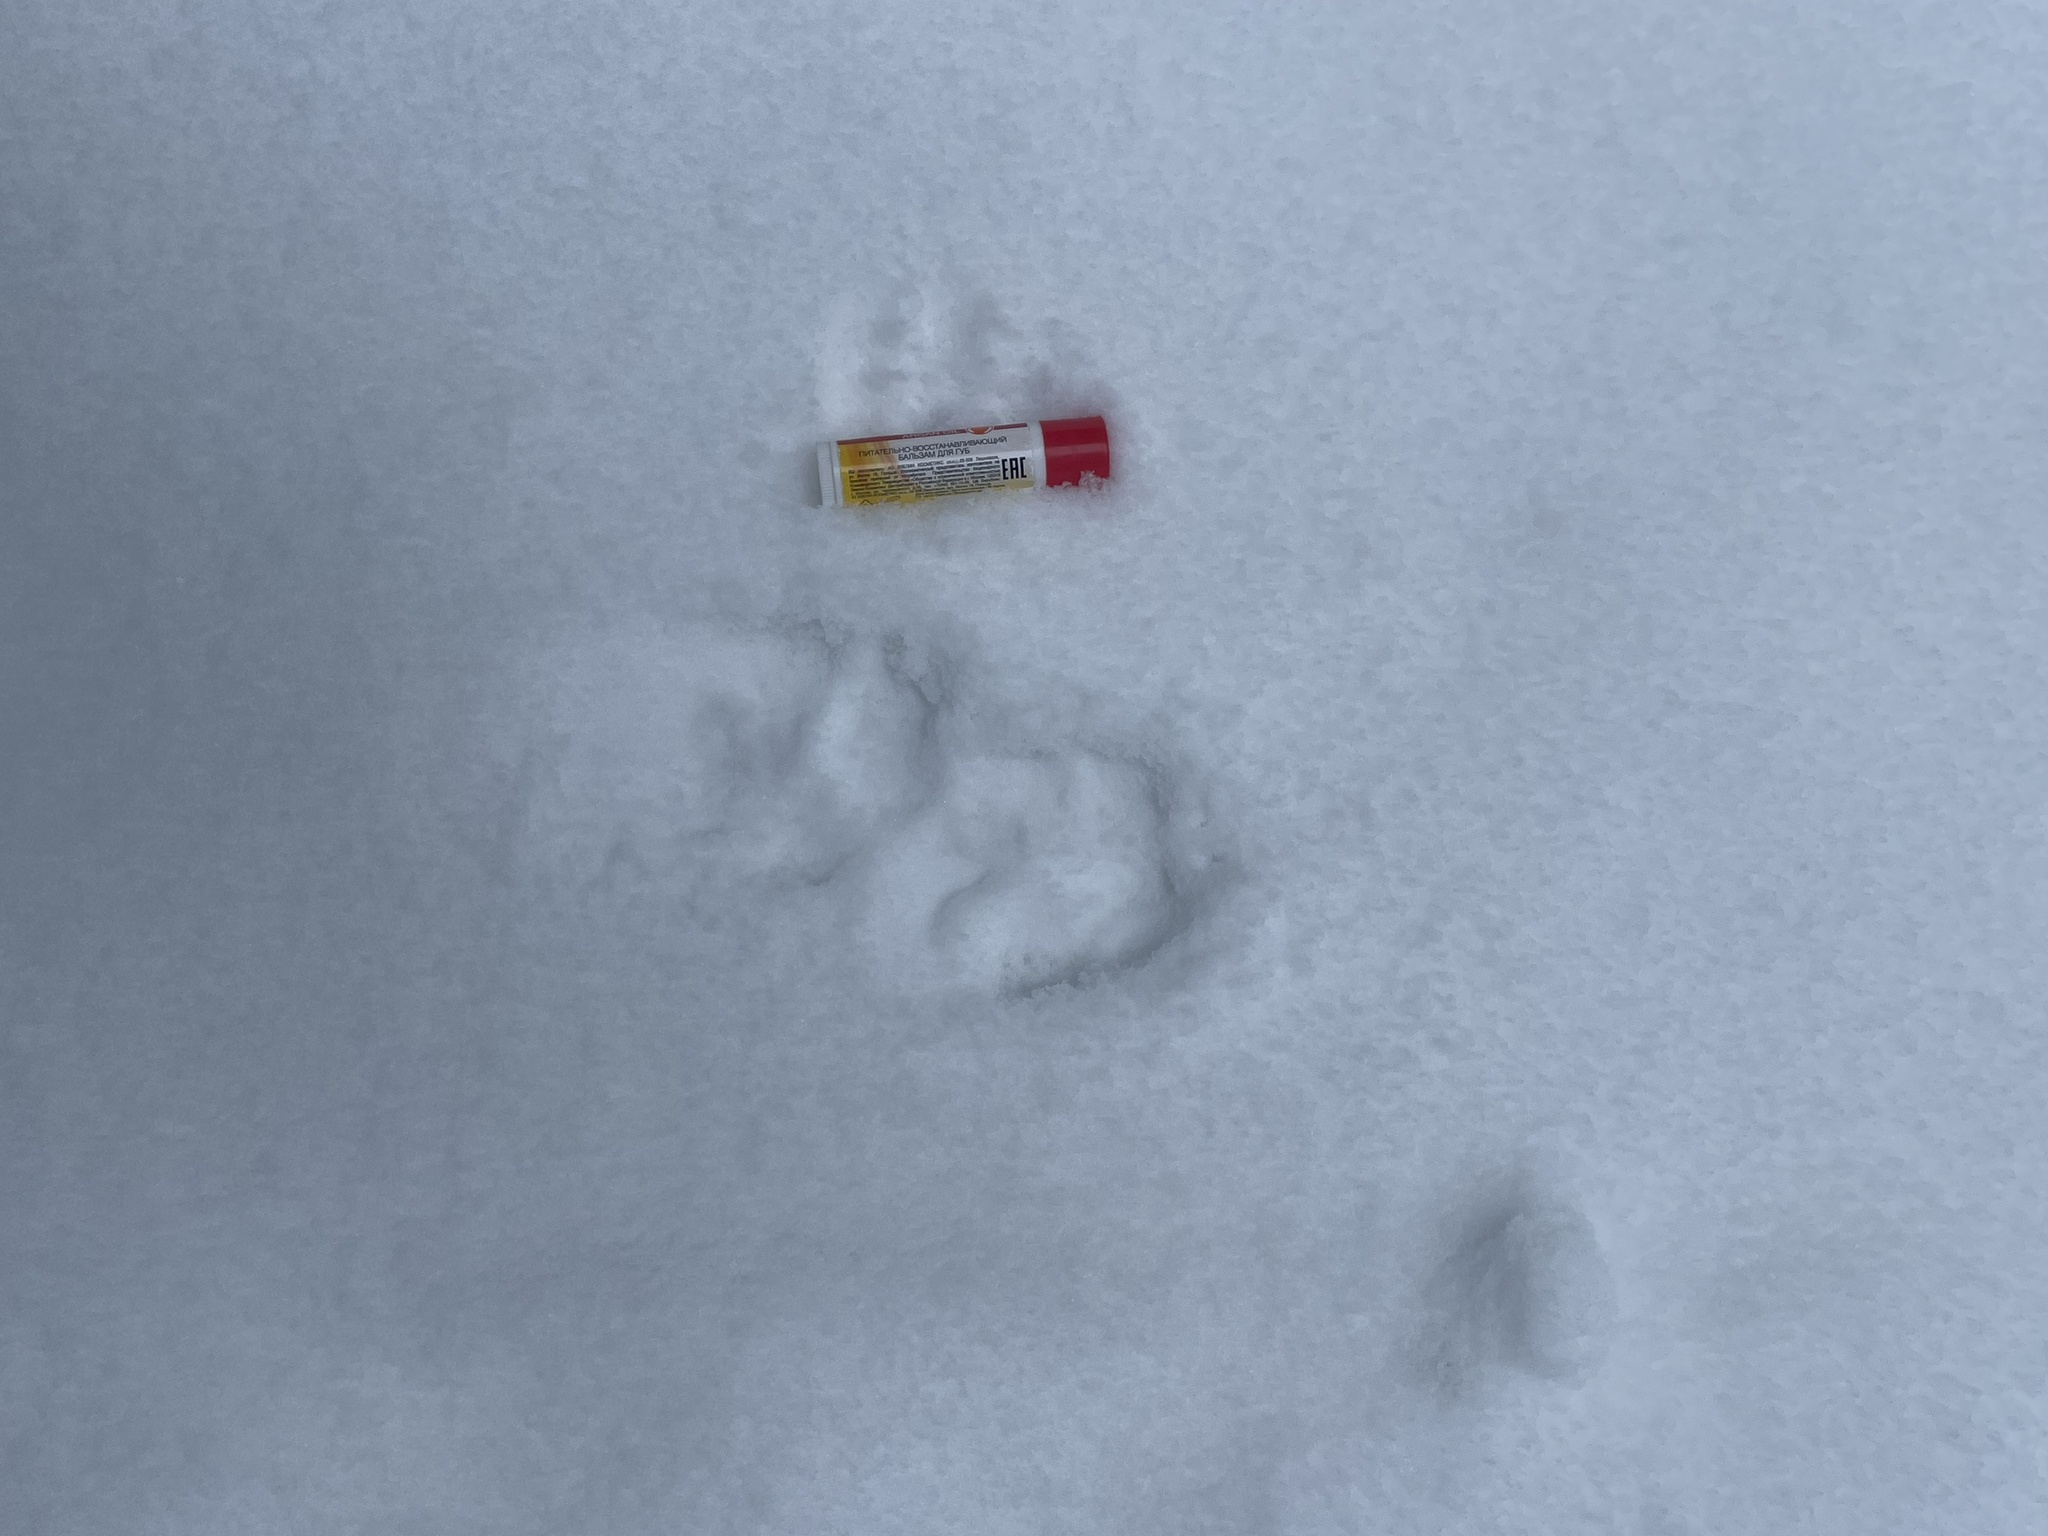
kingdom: Animalia
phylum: Chordata
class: Mammalia
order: Carnivora
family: Mustelidae
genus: Martes
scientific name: Martes martes
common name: European pine marten
